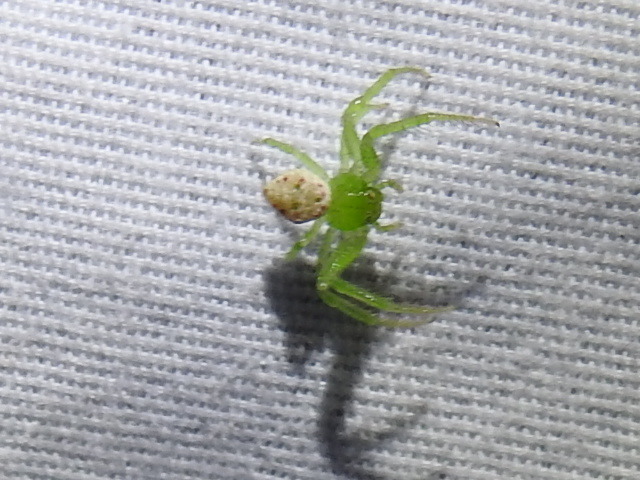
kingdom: Animalia
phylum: Arthropoda
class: Arachnida
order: Araneae
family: Thomisidae
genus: Synema
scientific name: Synema viridans
